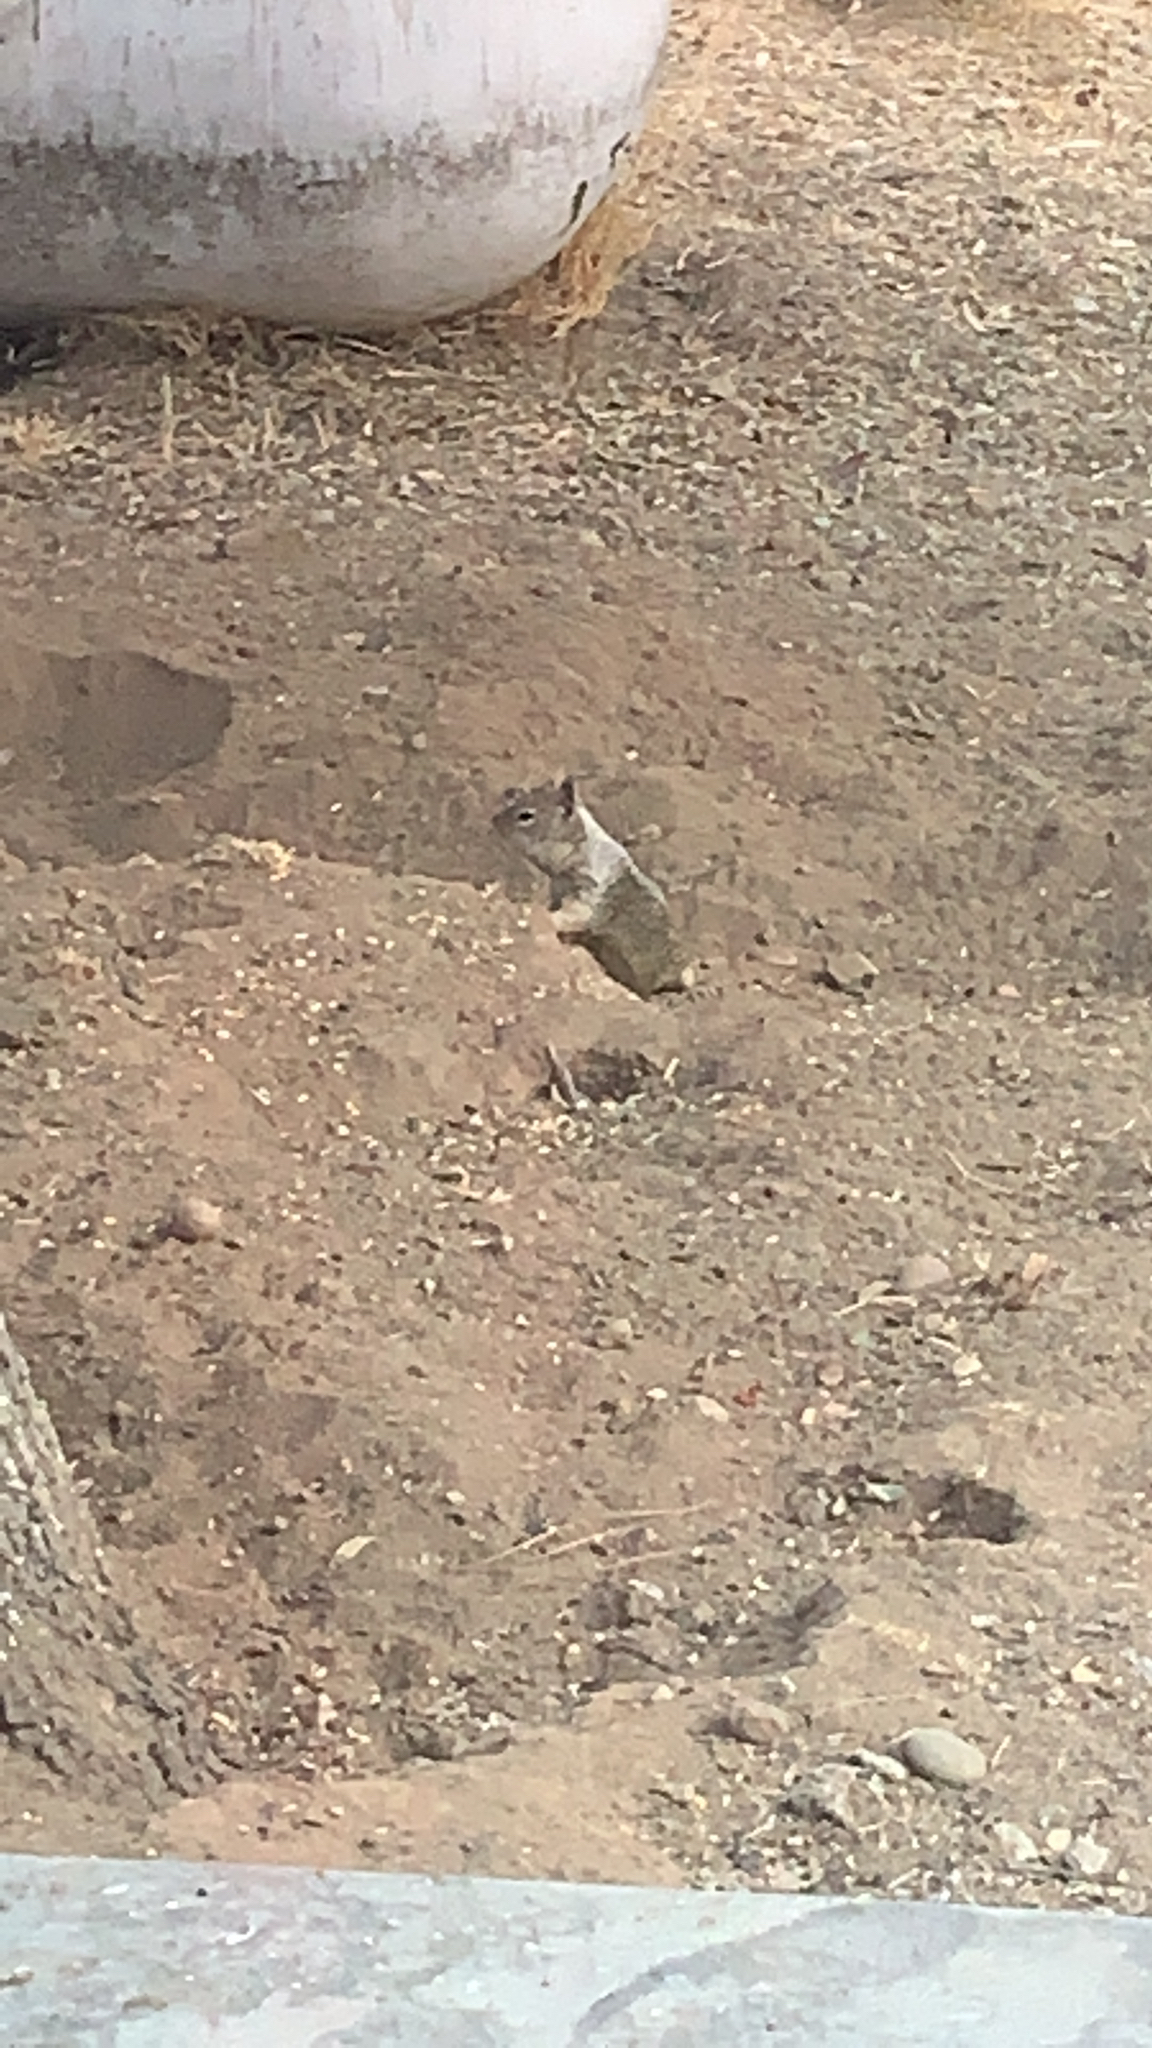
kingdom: Animalia
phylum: Chordata
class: Mammalia
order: Rodentia
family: Sciuridae
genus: Otospermophilus
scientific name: Otospermophilus beecheyi
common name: California ground squirrel
